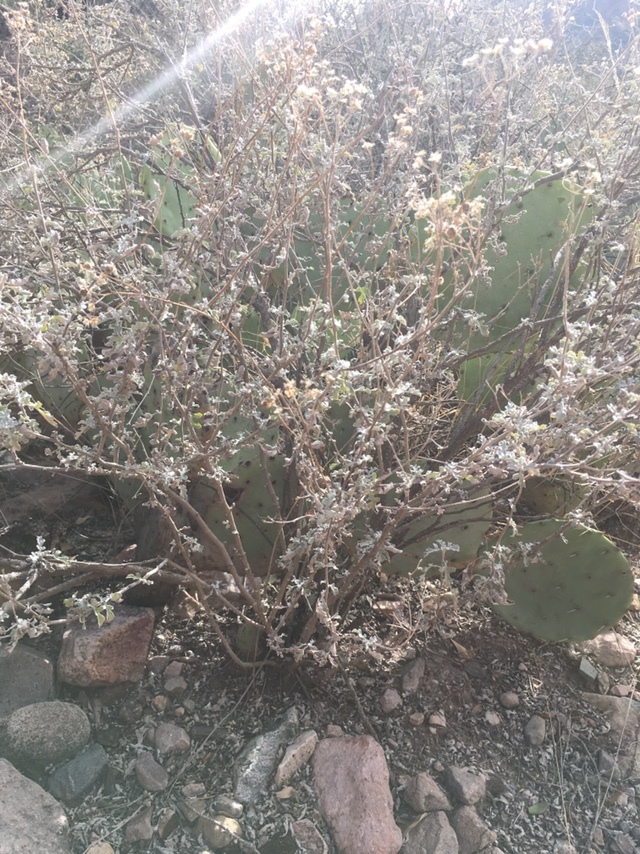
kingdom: Plantae
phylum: Tracheophyta
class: Magnoliopsida
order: Asterales
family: Asteraceae
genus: Parthenium
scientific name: Parthenium incanum
